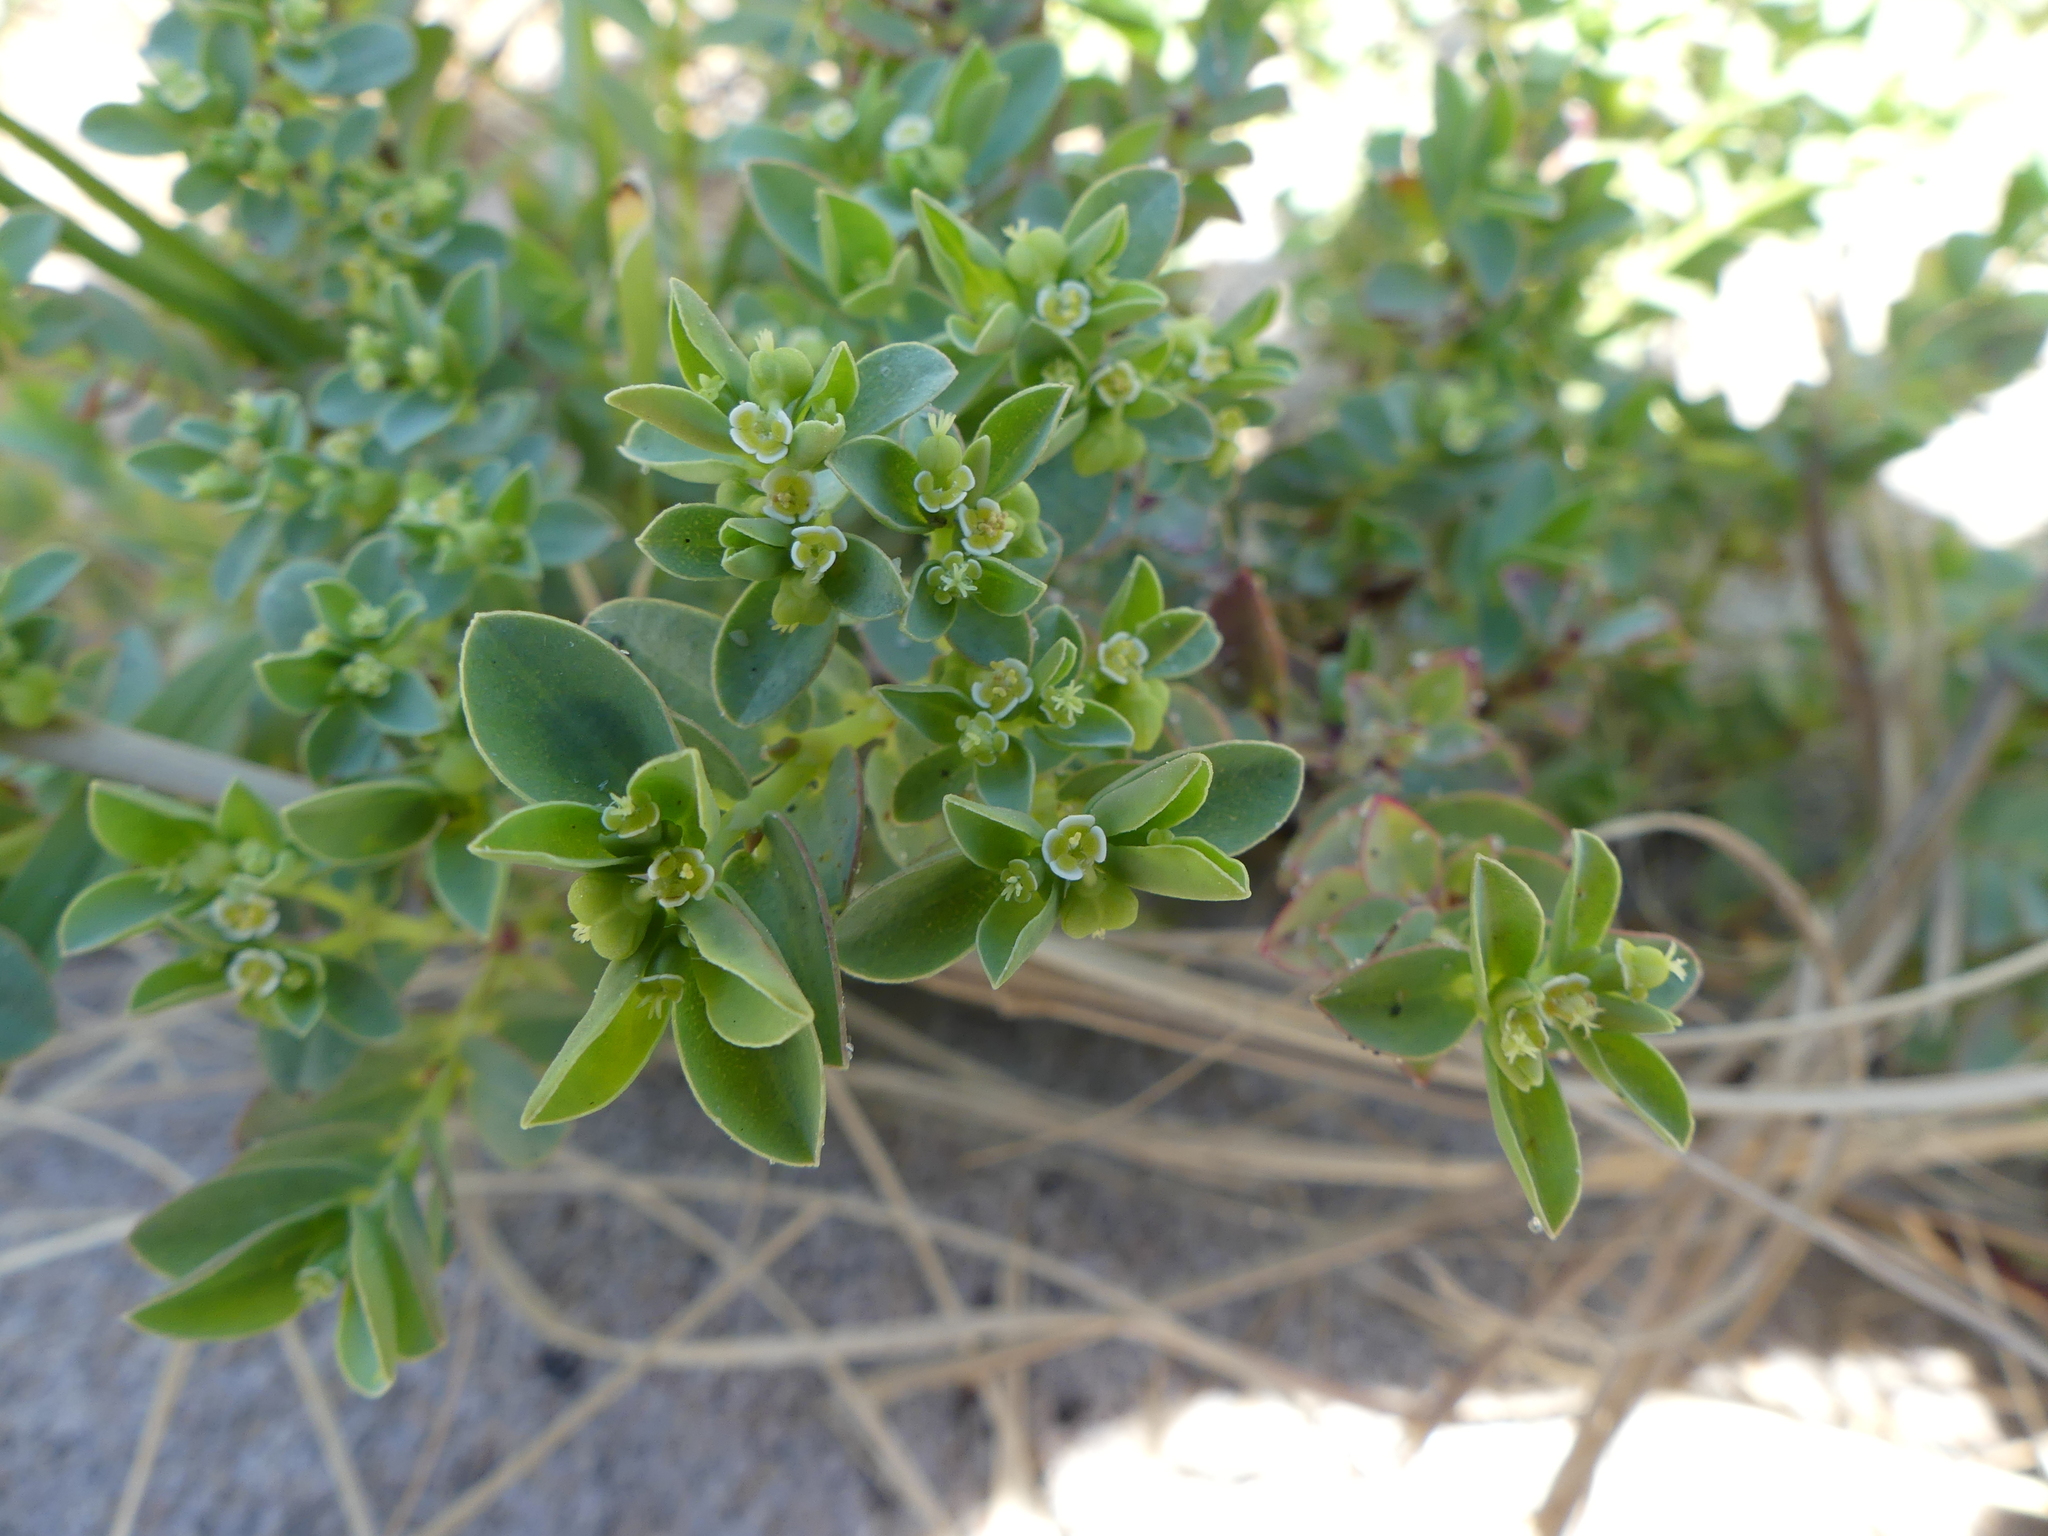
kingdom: Plantae
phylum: Tracheophyta
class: Magnoliopsida
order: Malpighiales
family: Euphorbiaceae
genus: Euphorbia
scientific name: Euphorbia mesembryanthemifolia
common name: Coastal beach sandmat
